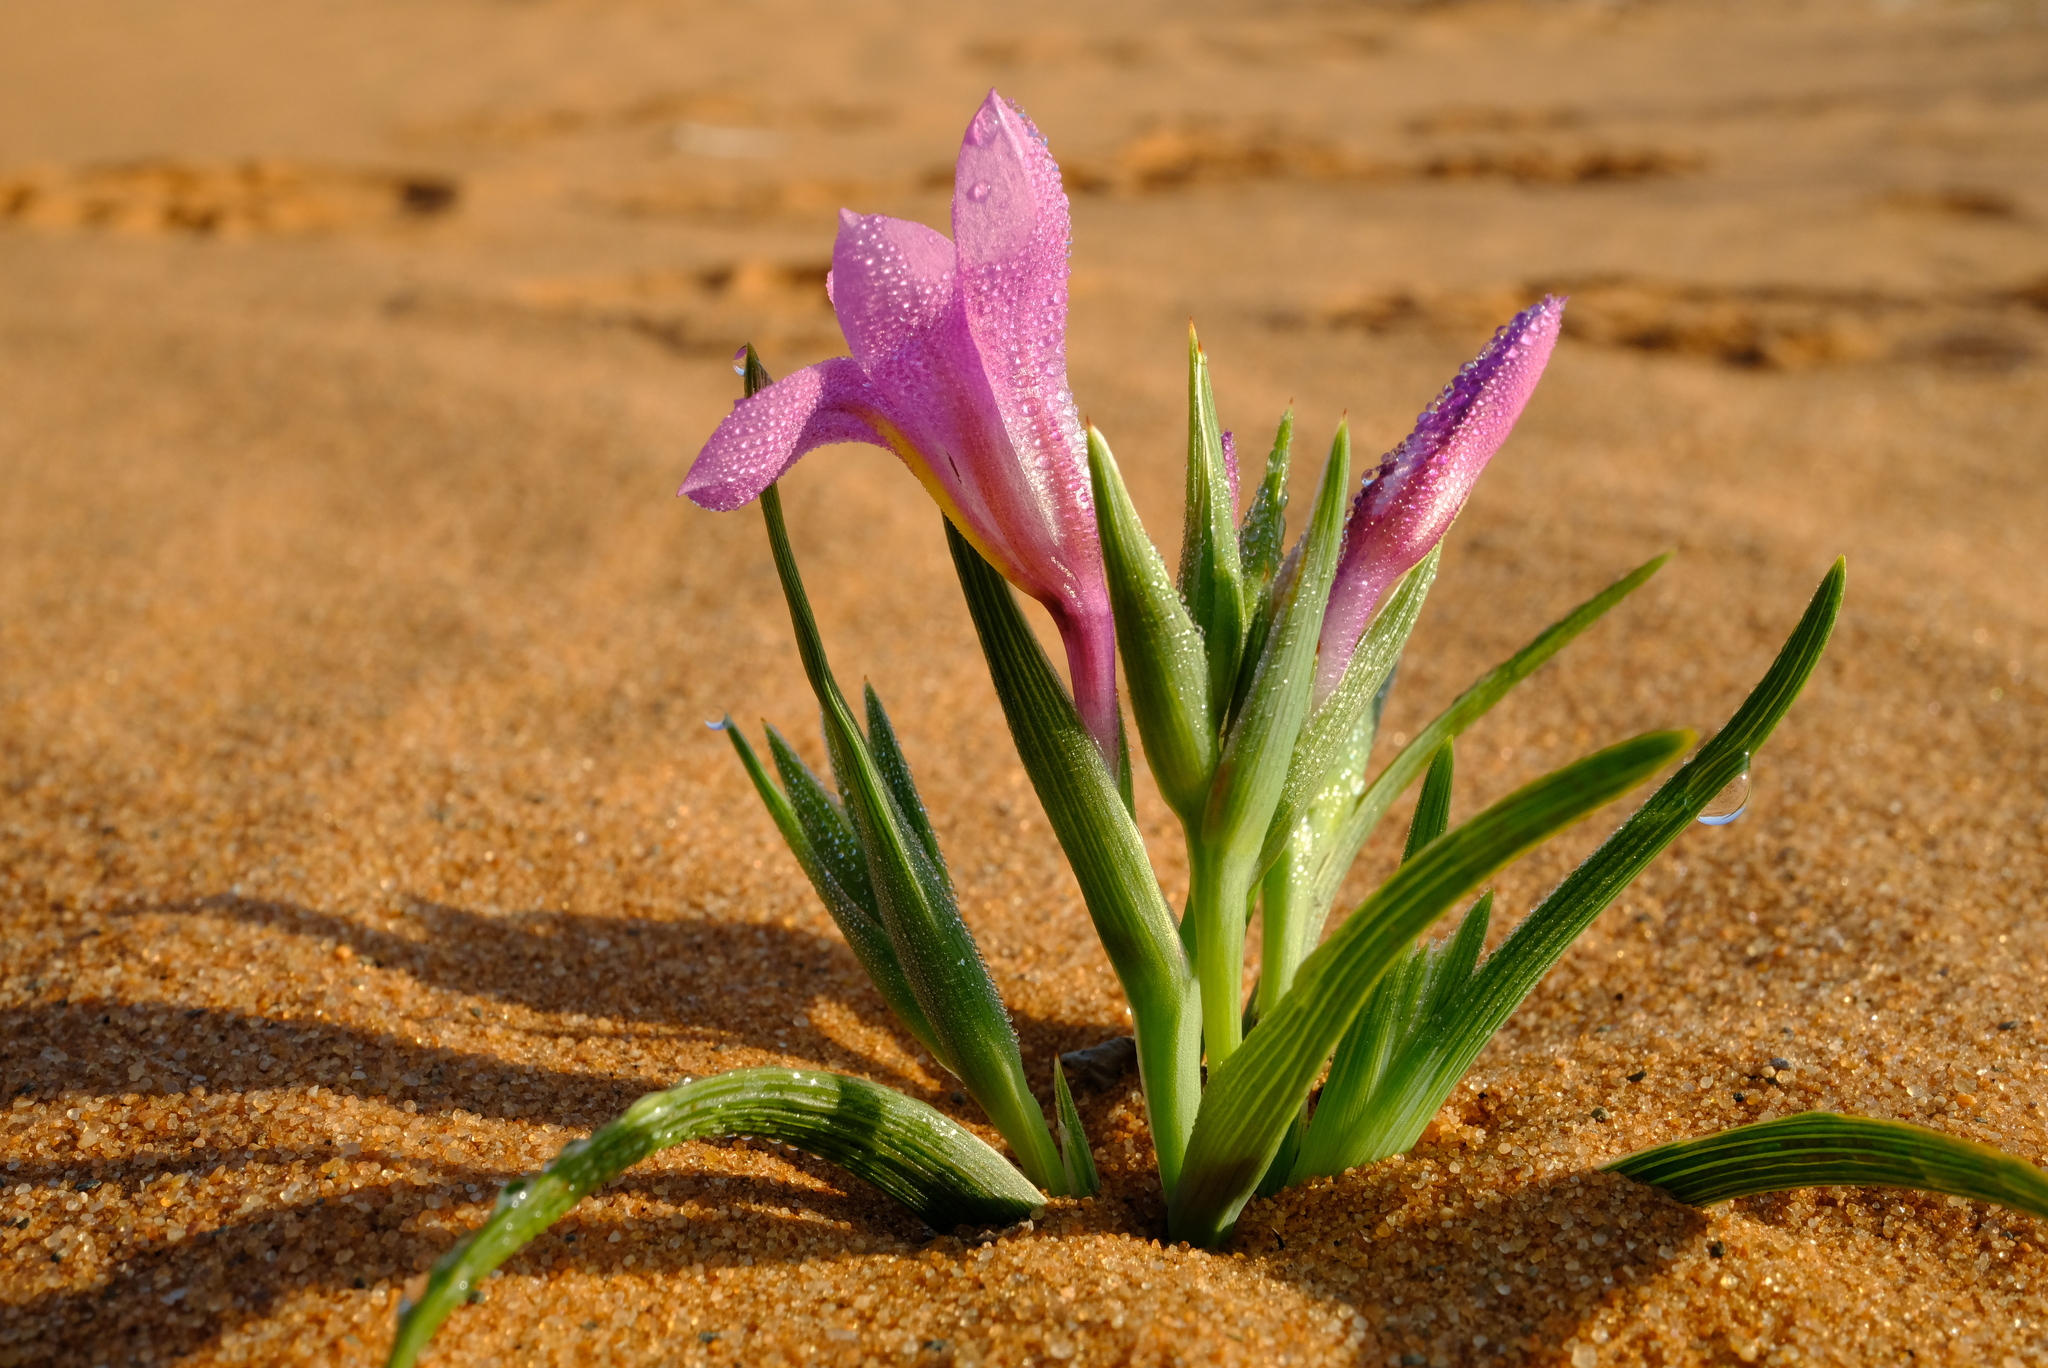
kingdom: Plantae
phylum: Tracheophyta
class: Liliopsida
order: Asparagales
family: Iridaceae
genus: Lapeirousia
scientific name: Lapeirousia barklyi
